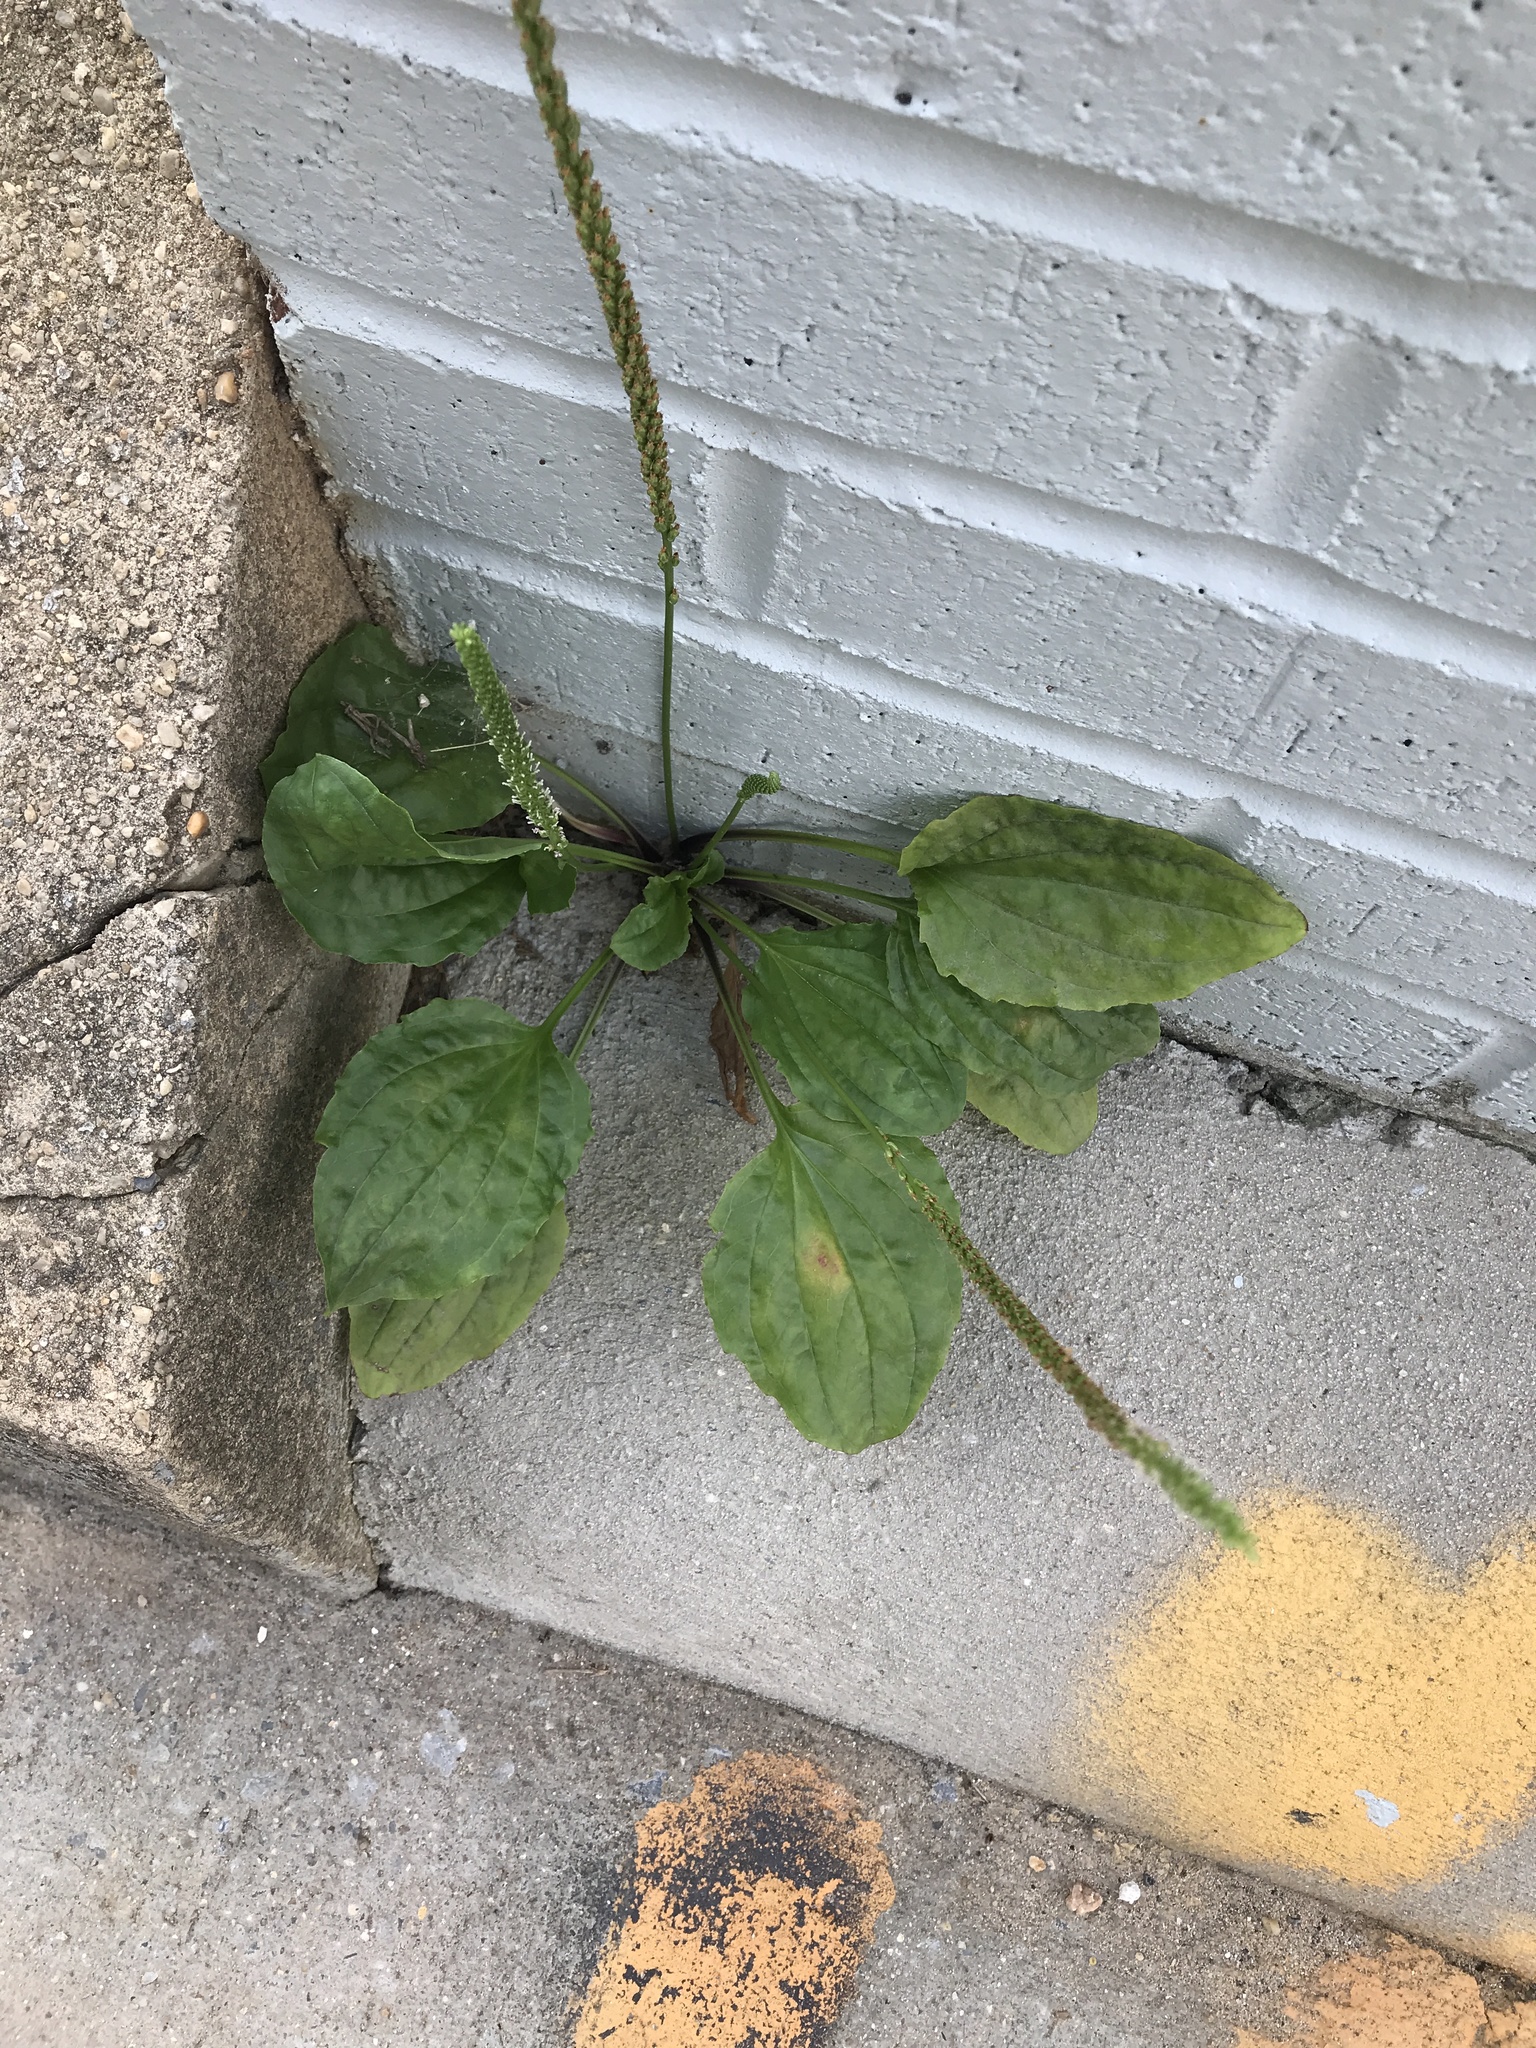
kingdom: Plantae
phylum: Tracheophyta
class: Magnoliopsida
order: Lamiales
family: Plantaginaceae
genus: Plantago
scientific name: Plantago major
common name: Common plantain
